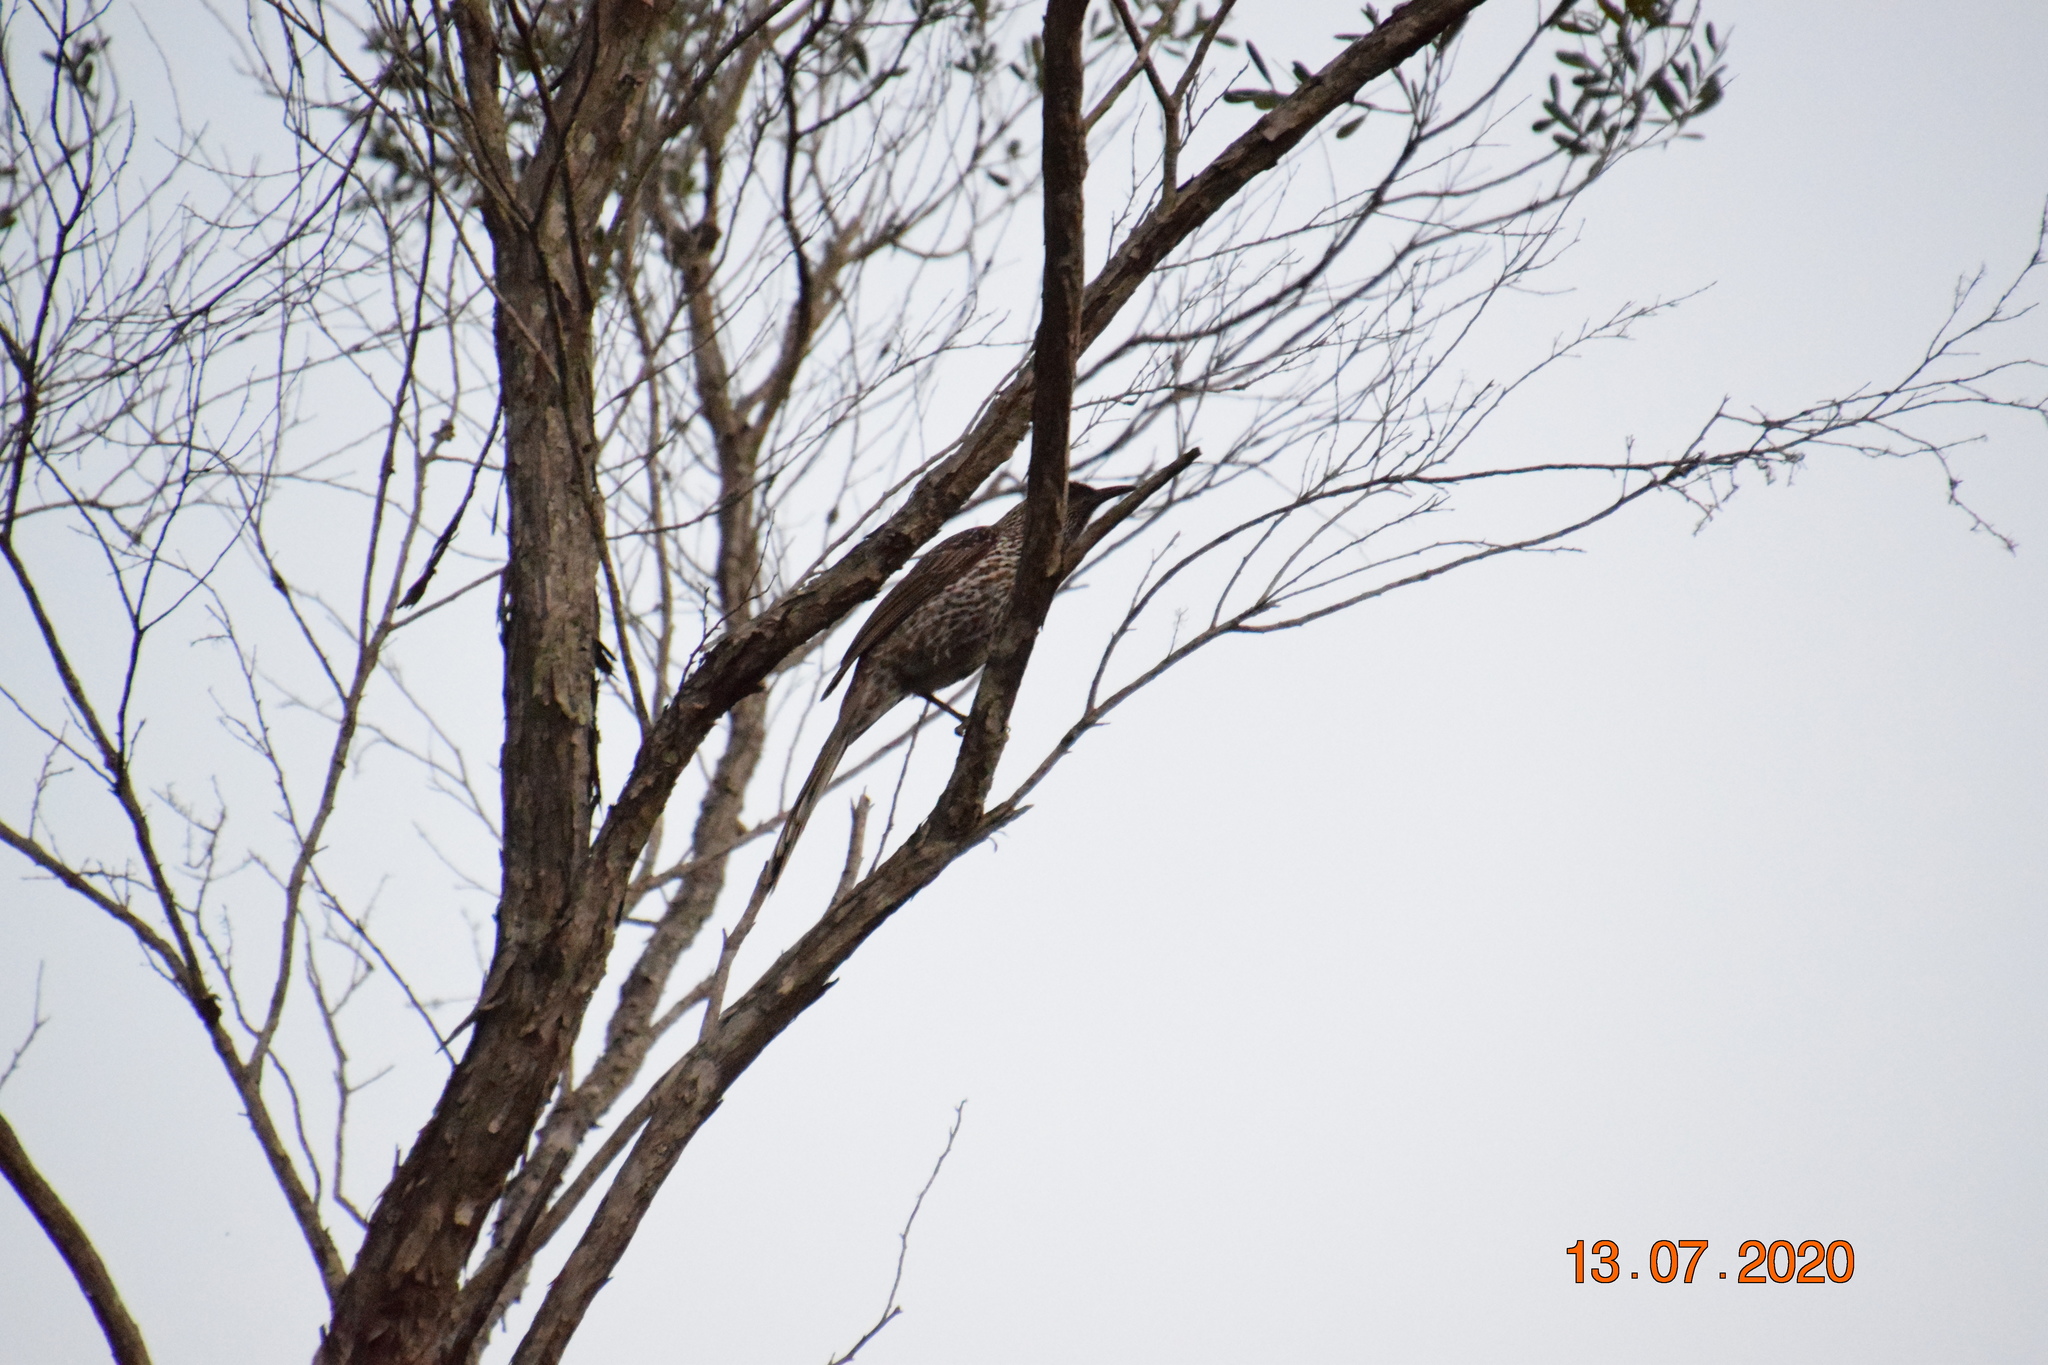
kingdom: Animalia
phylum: Chordata
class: Aves
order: Passeriformes
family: Meliphagidae
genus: Anthochaera
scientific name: Anthochaera chrysoptera
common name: Little wattlebird
